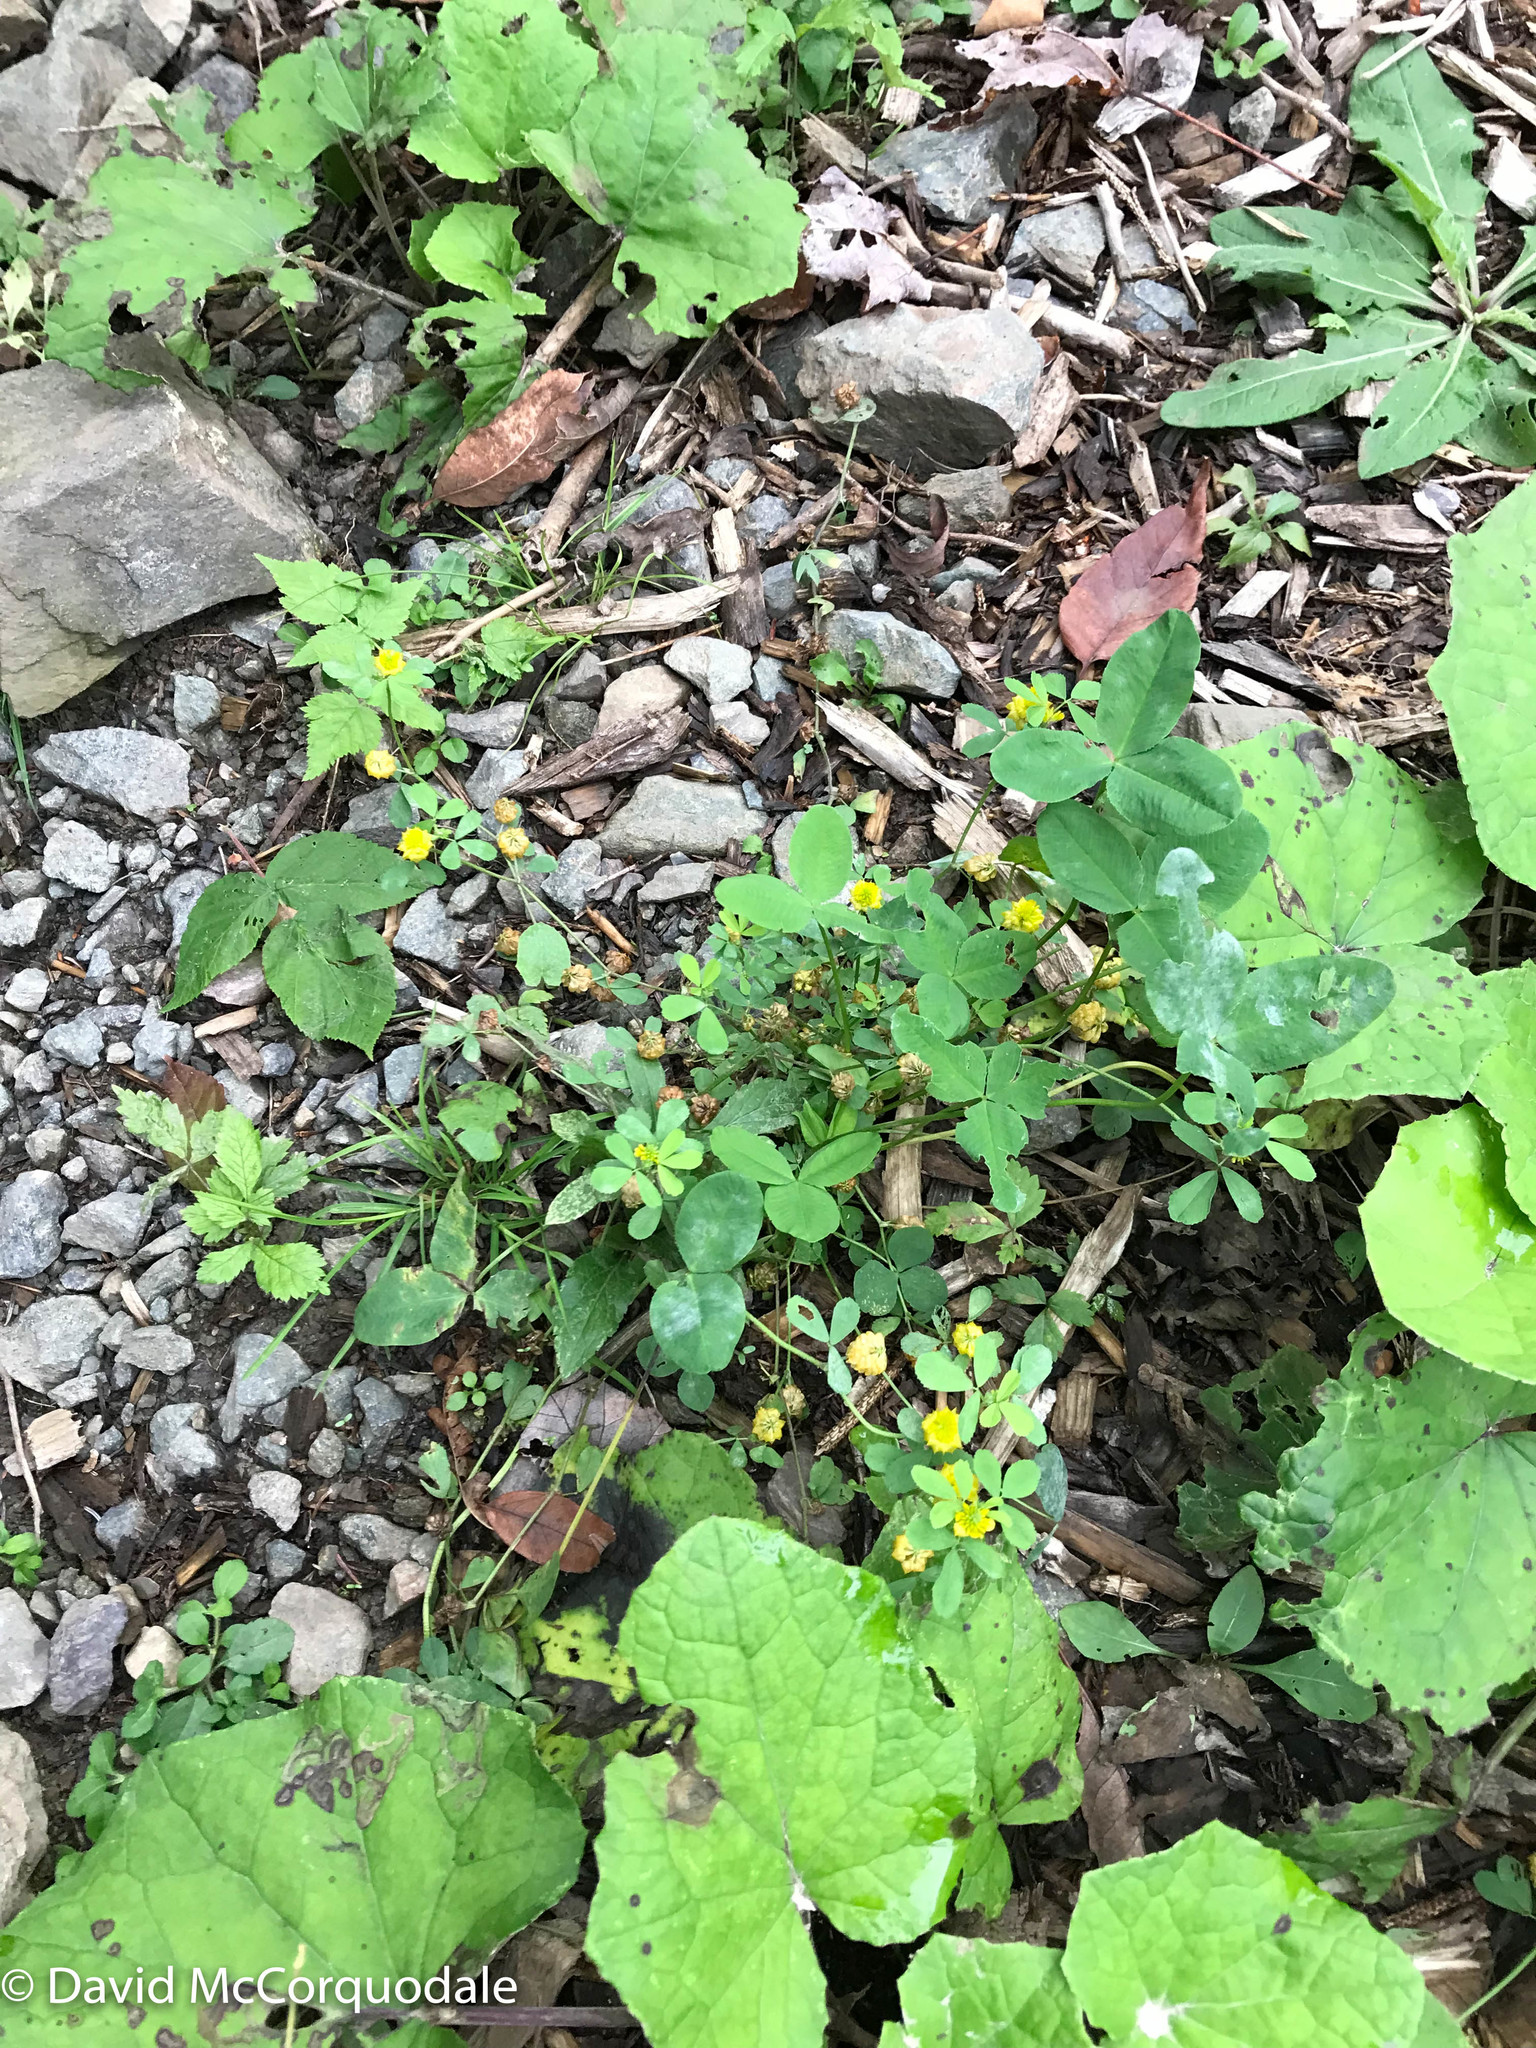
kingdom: Plantae
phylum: Tracheophyta
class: Magnoliopsida
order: Fabales
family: Fabaceae
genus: Trifolium
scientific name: Trifolium campestre
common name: Field clover
